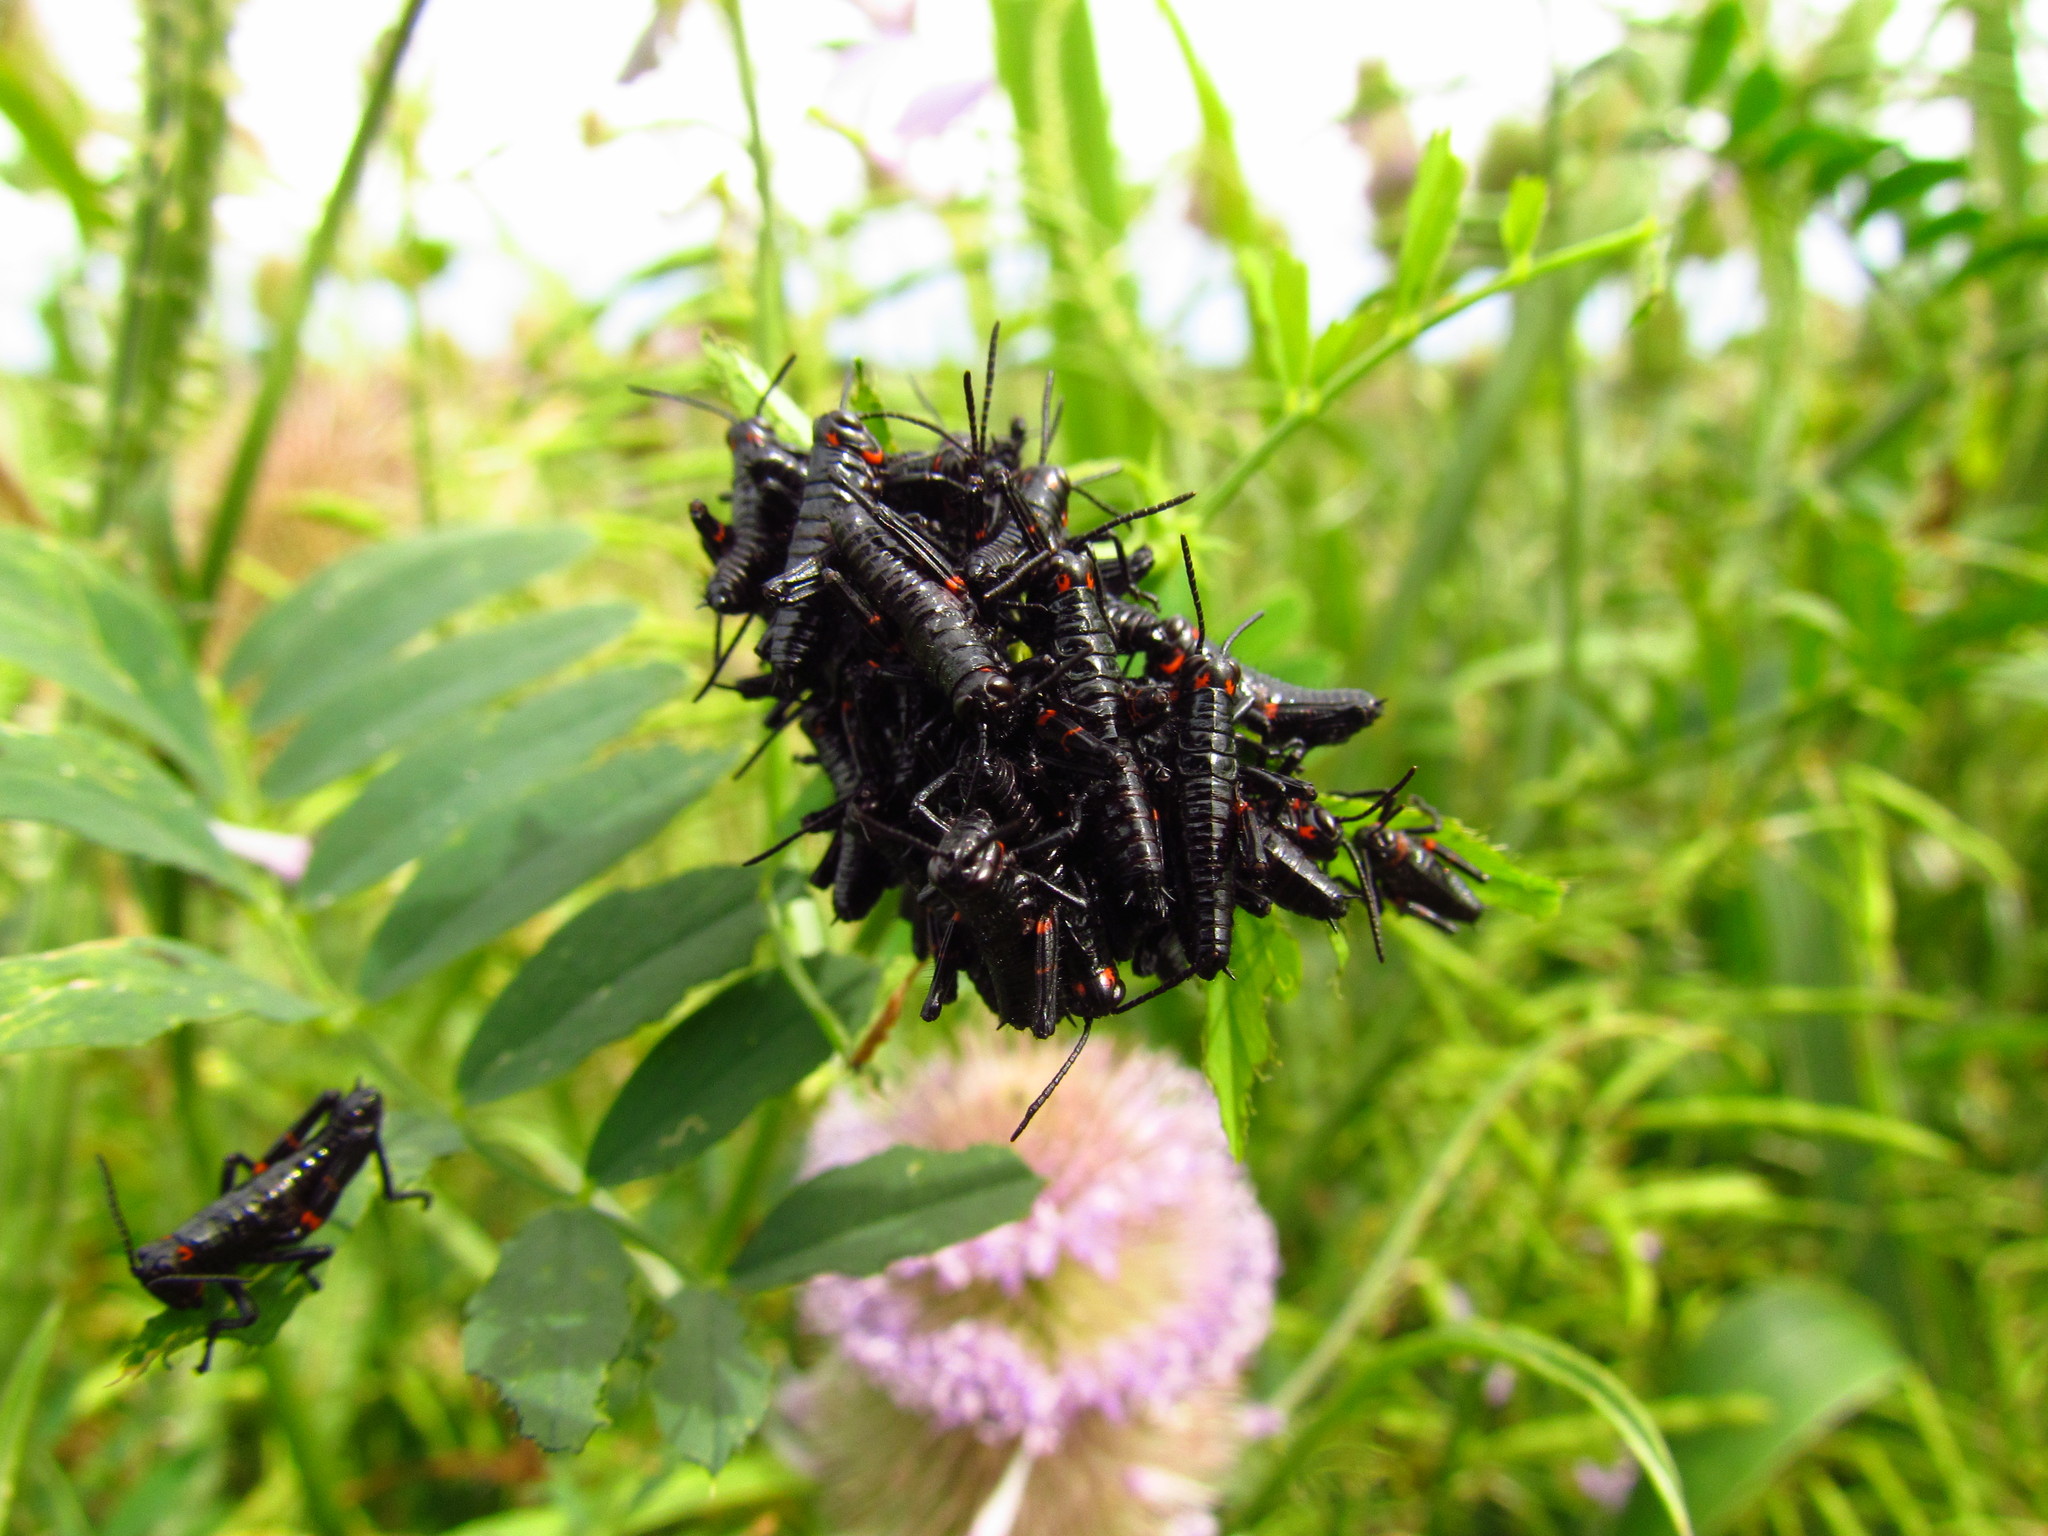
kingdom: Animalia
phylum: Arthropoda
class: Insecta
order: Orthoptera
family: Romaleidae
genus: Chromacris
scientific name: Chromacris speciosa
